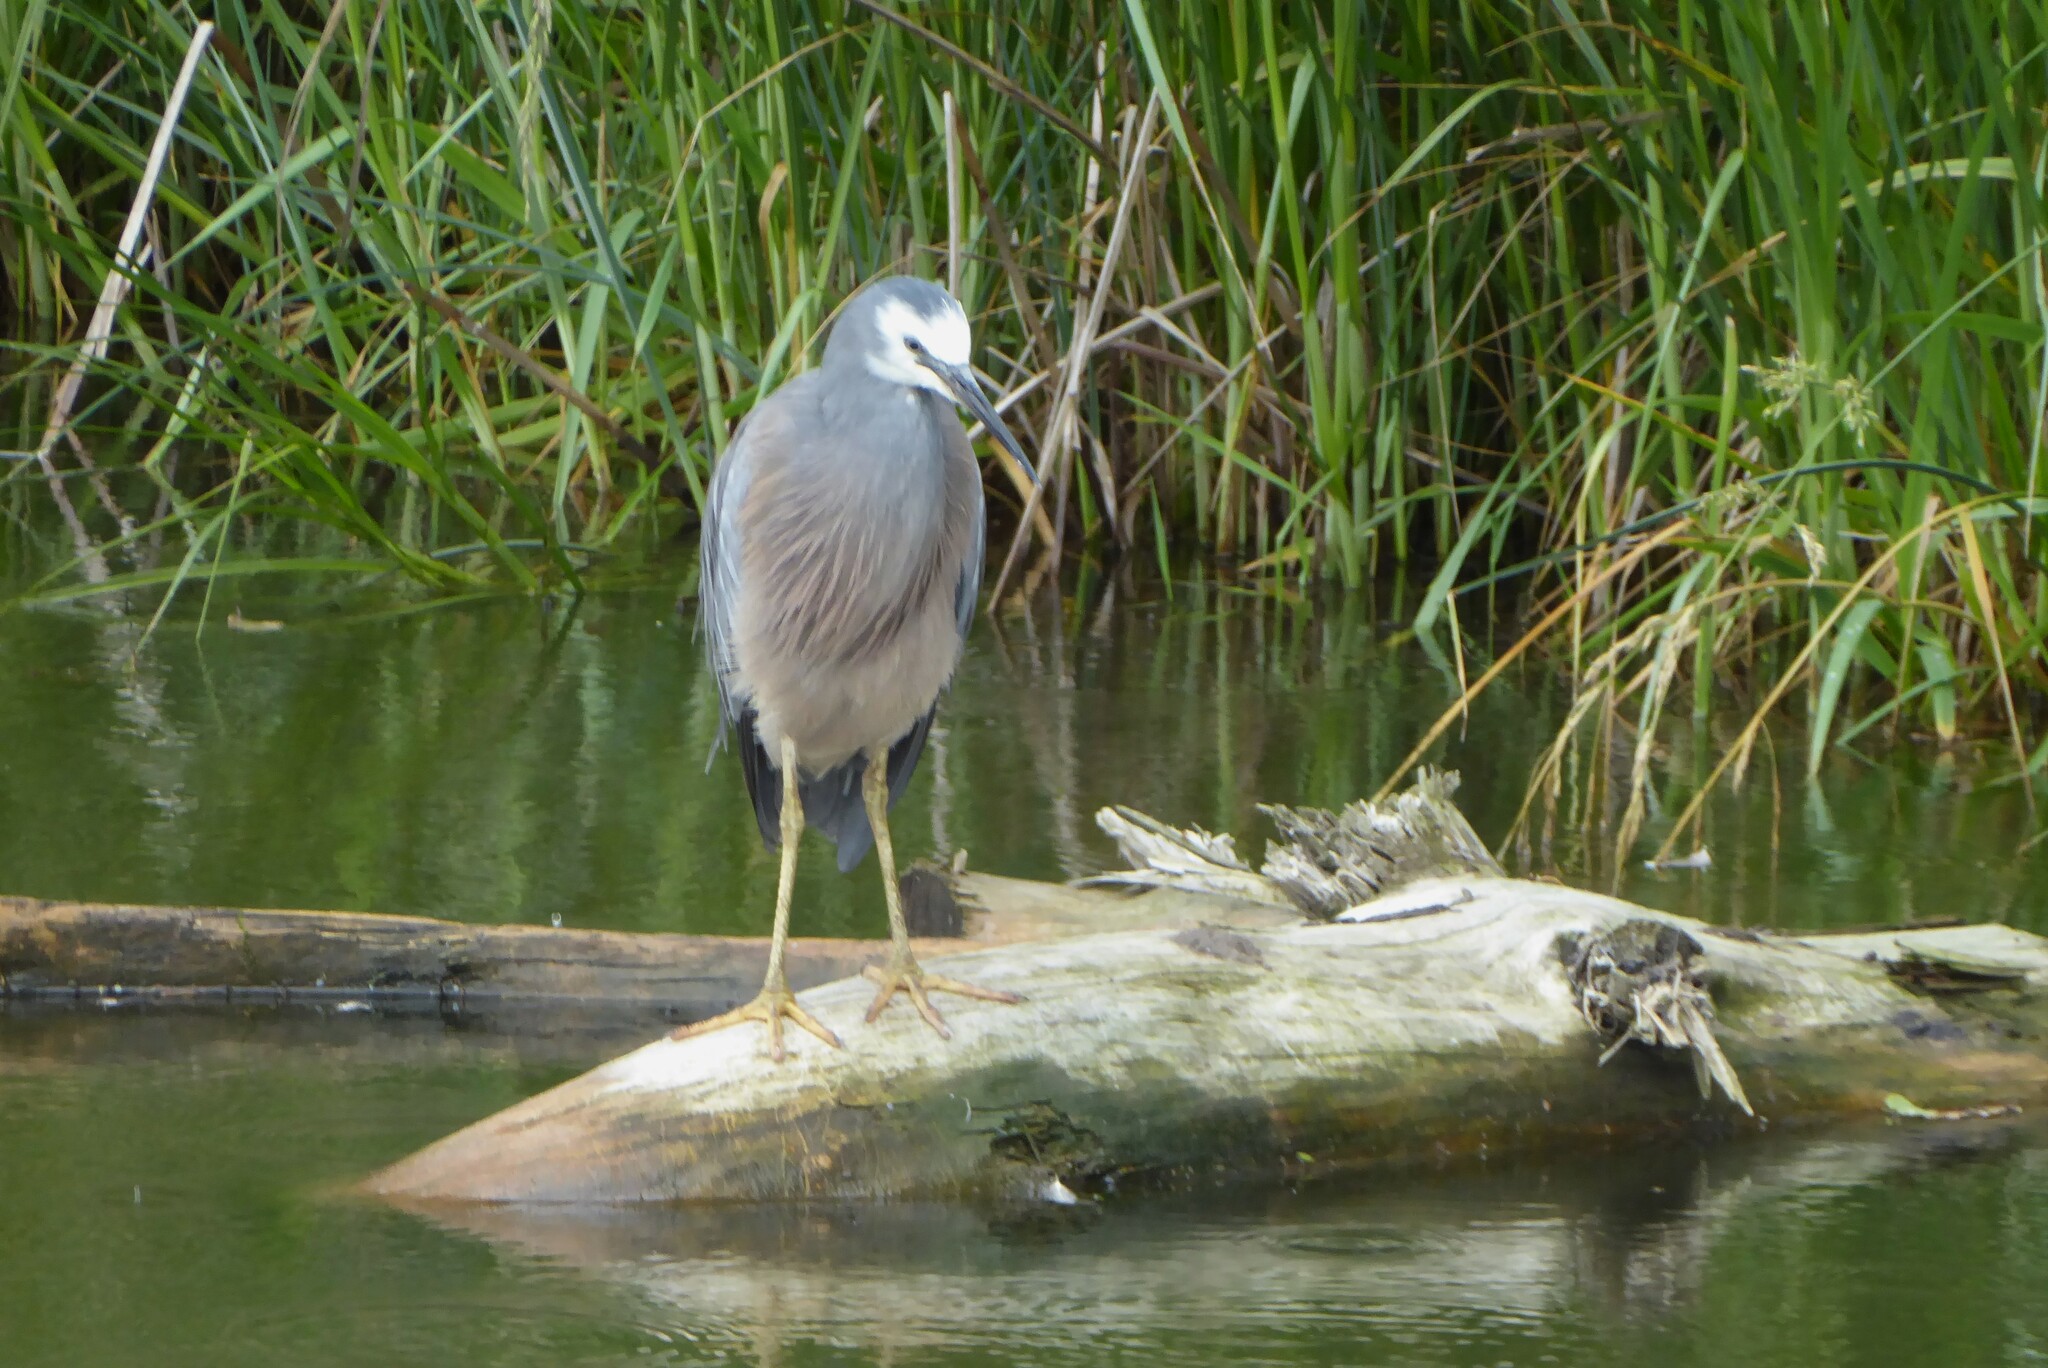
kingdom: Animalia
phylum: Chordata
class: Aves
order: Pelecaniformes
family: Ardeidae
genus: Egretta
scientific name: Egretta novaehollandiae
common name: White-faced heron
